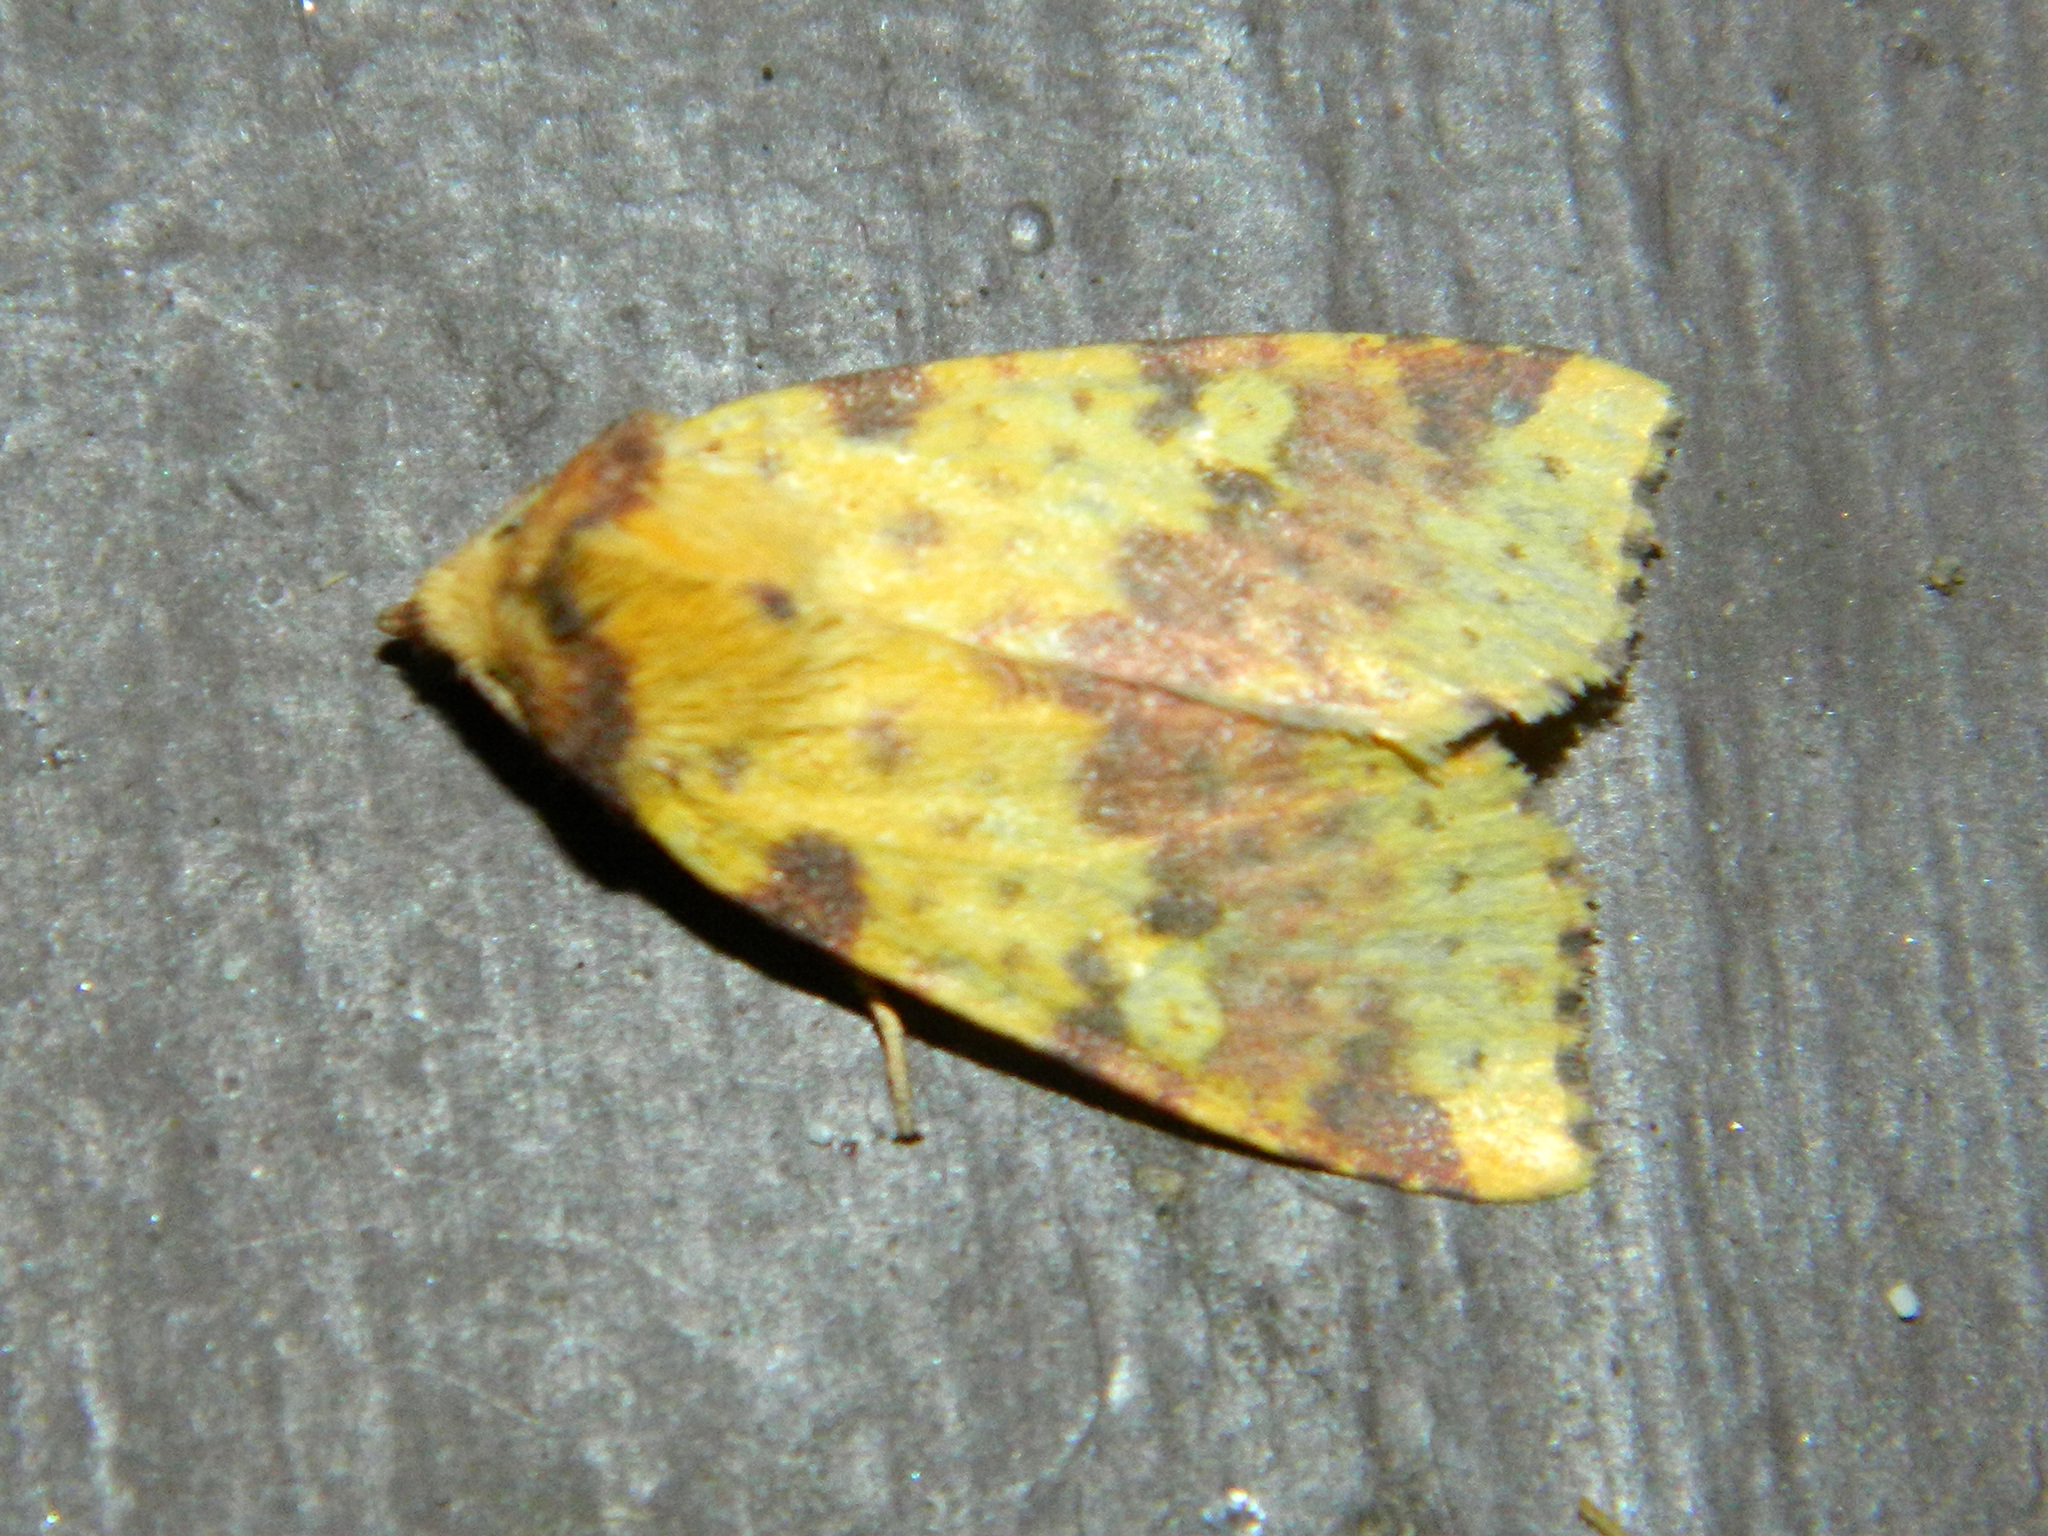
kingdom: Animalia
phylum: Arthropoda
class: Insecta
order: Lepidoptera
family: Noctuidae
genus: Xanthia
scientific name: Xanthia tatago
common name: Pink-banded sallow
